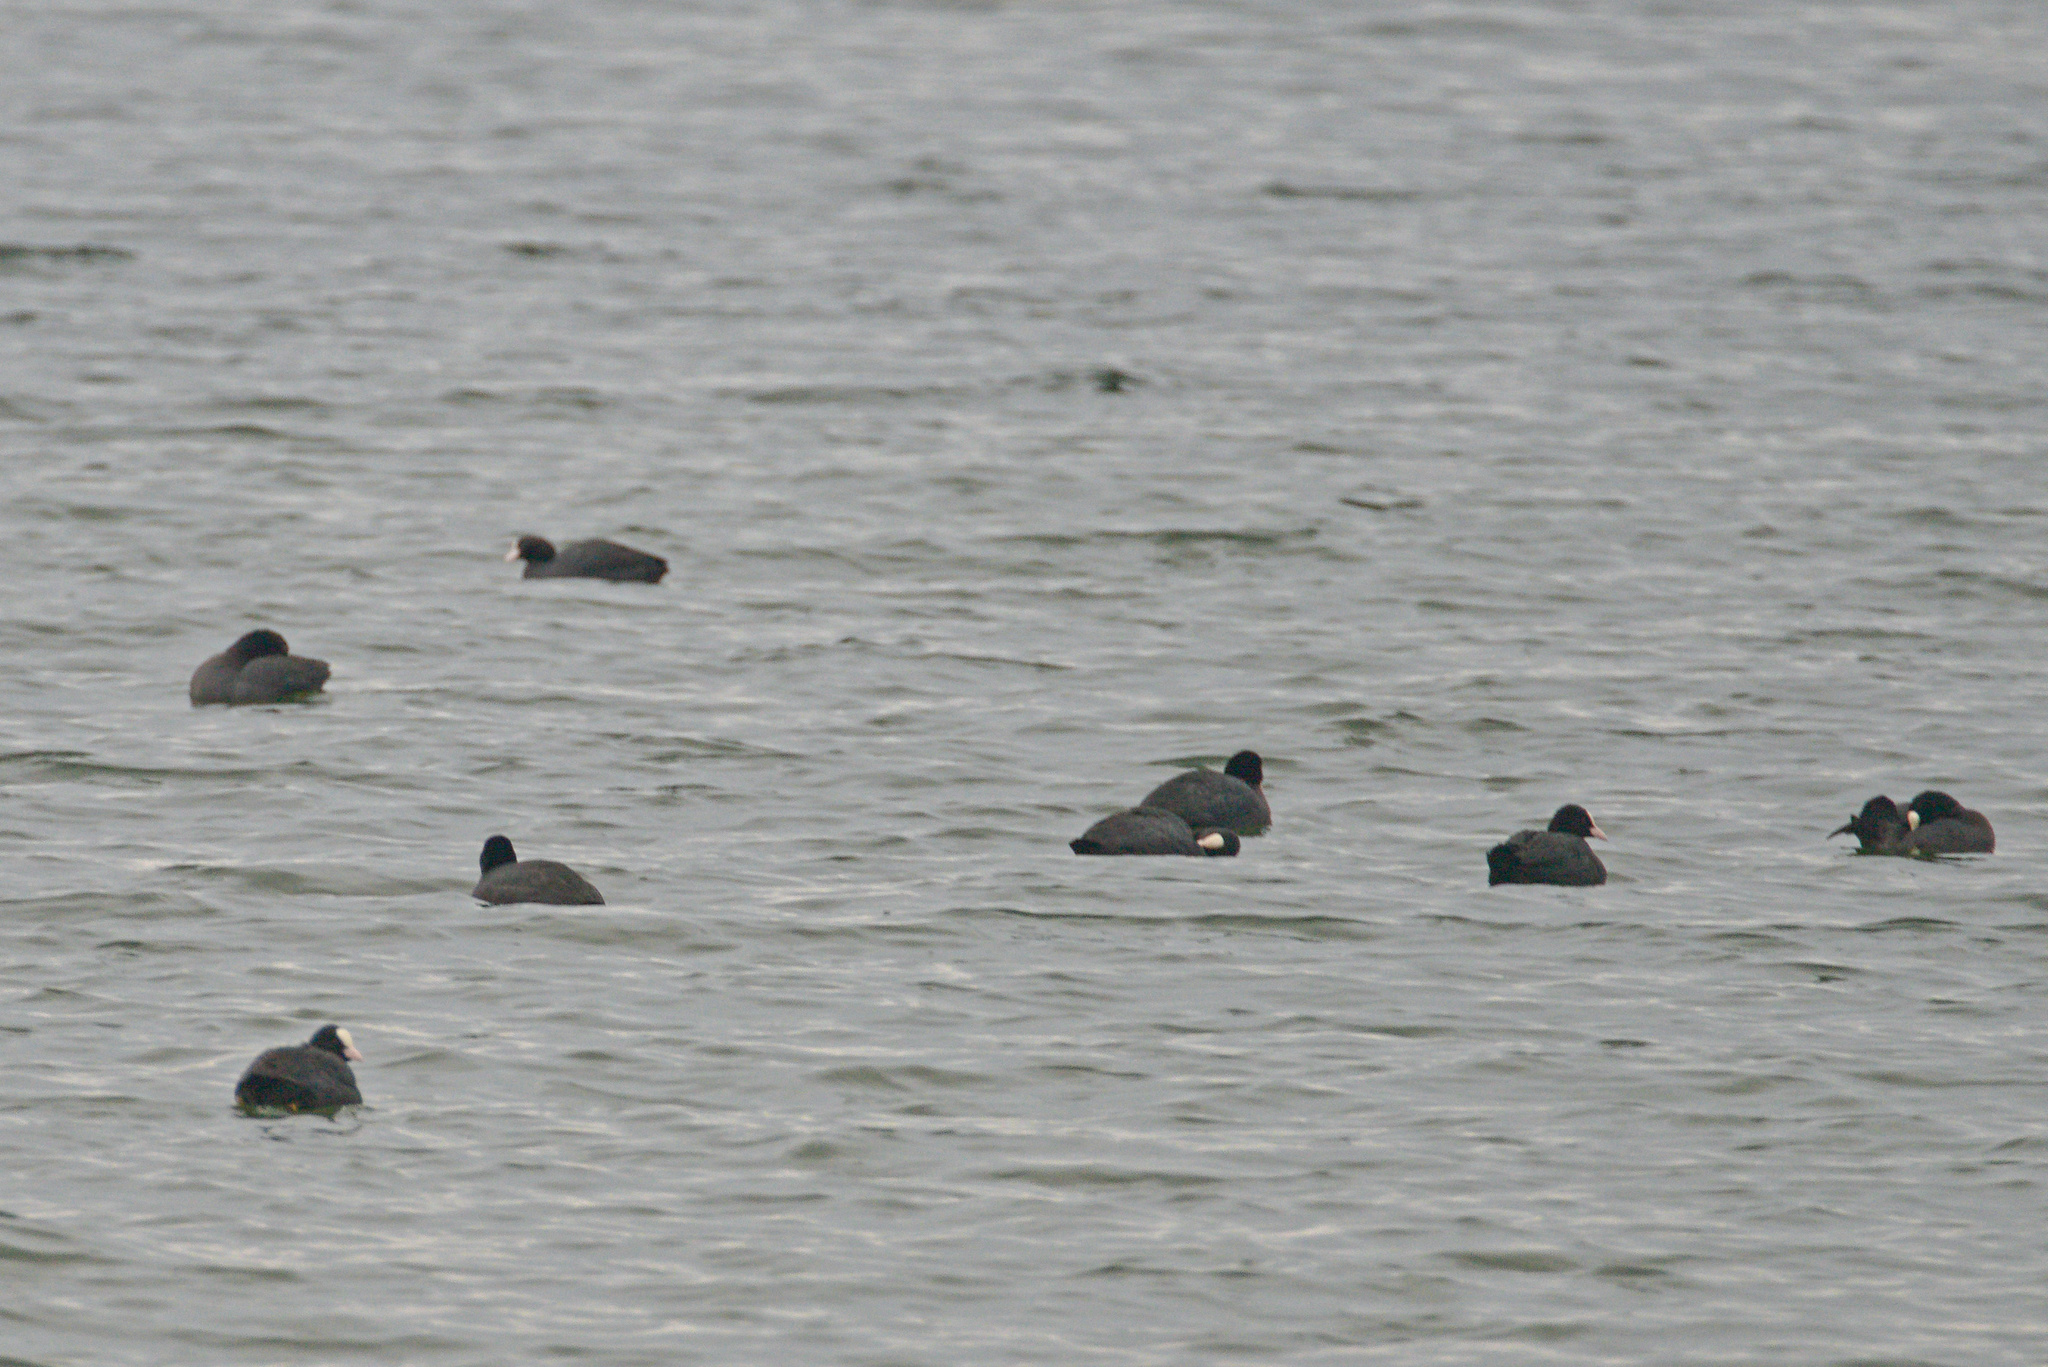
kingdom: Animalia
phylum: Chordata
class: Aves
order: Gruiformes
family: Rallidae
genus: Fulica
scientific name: Fulica atra
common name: Eurasian coot
